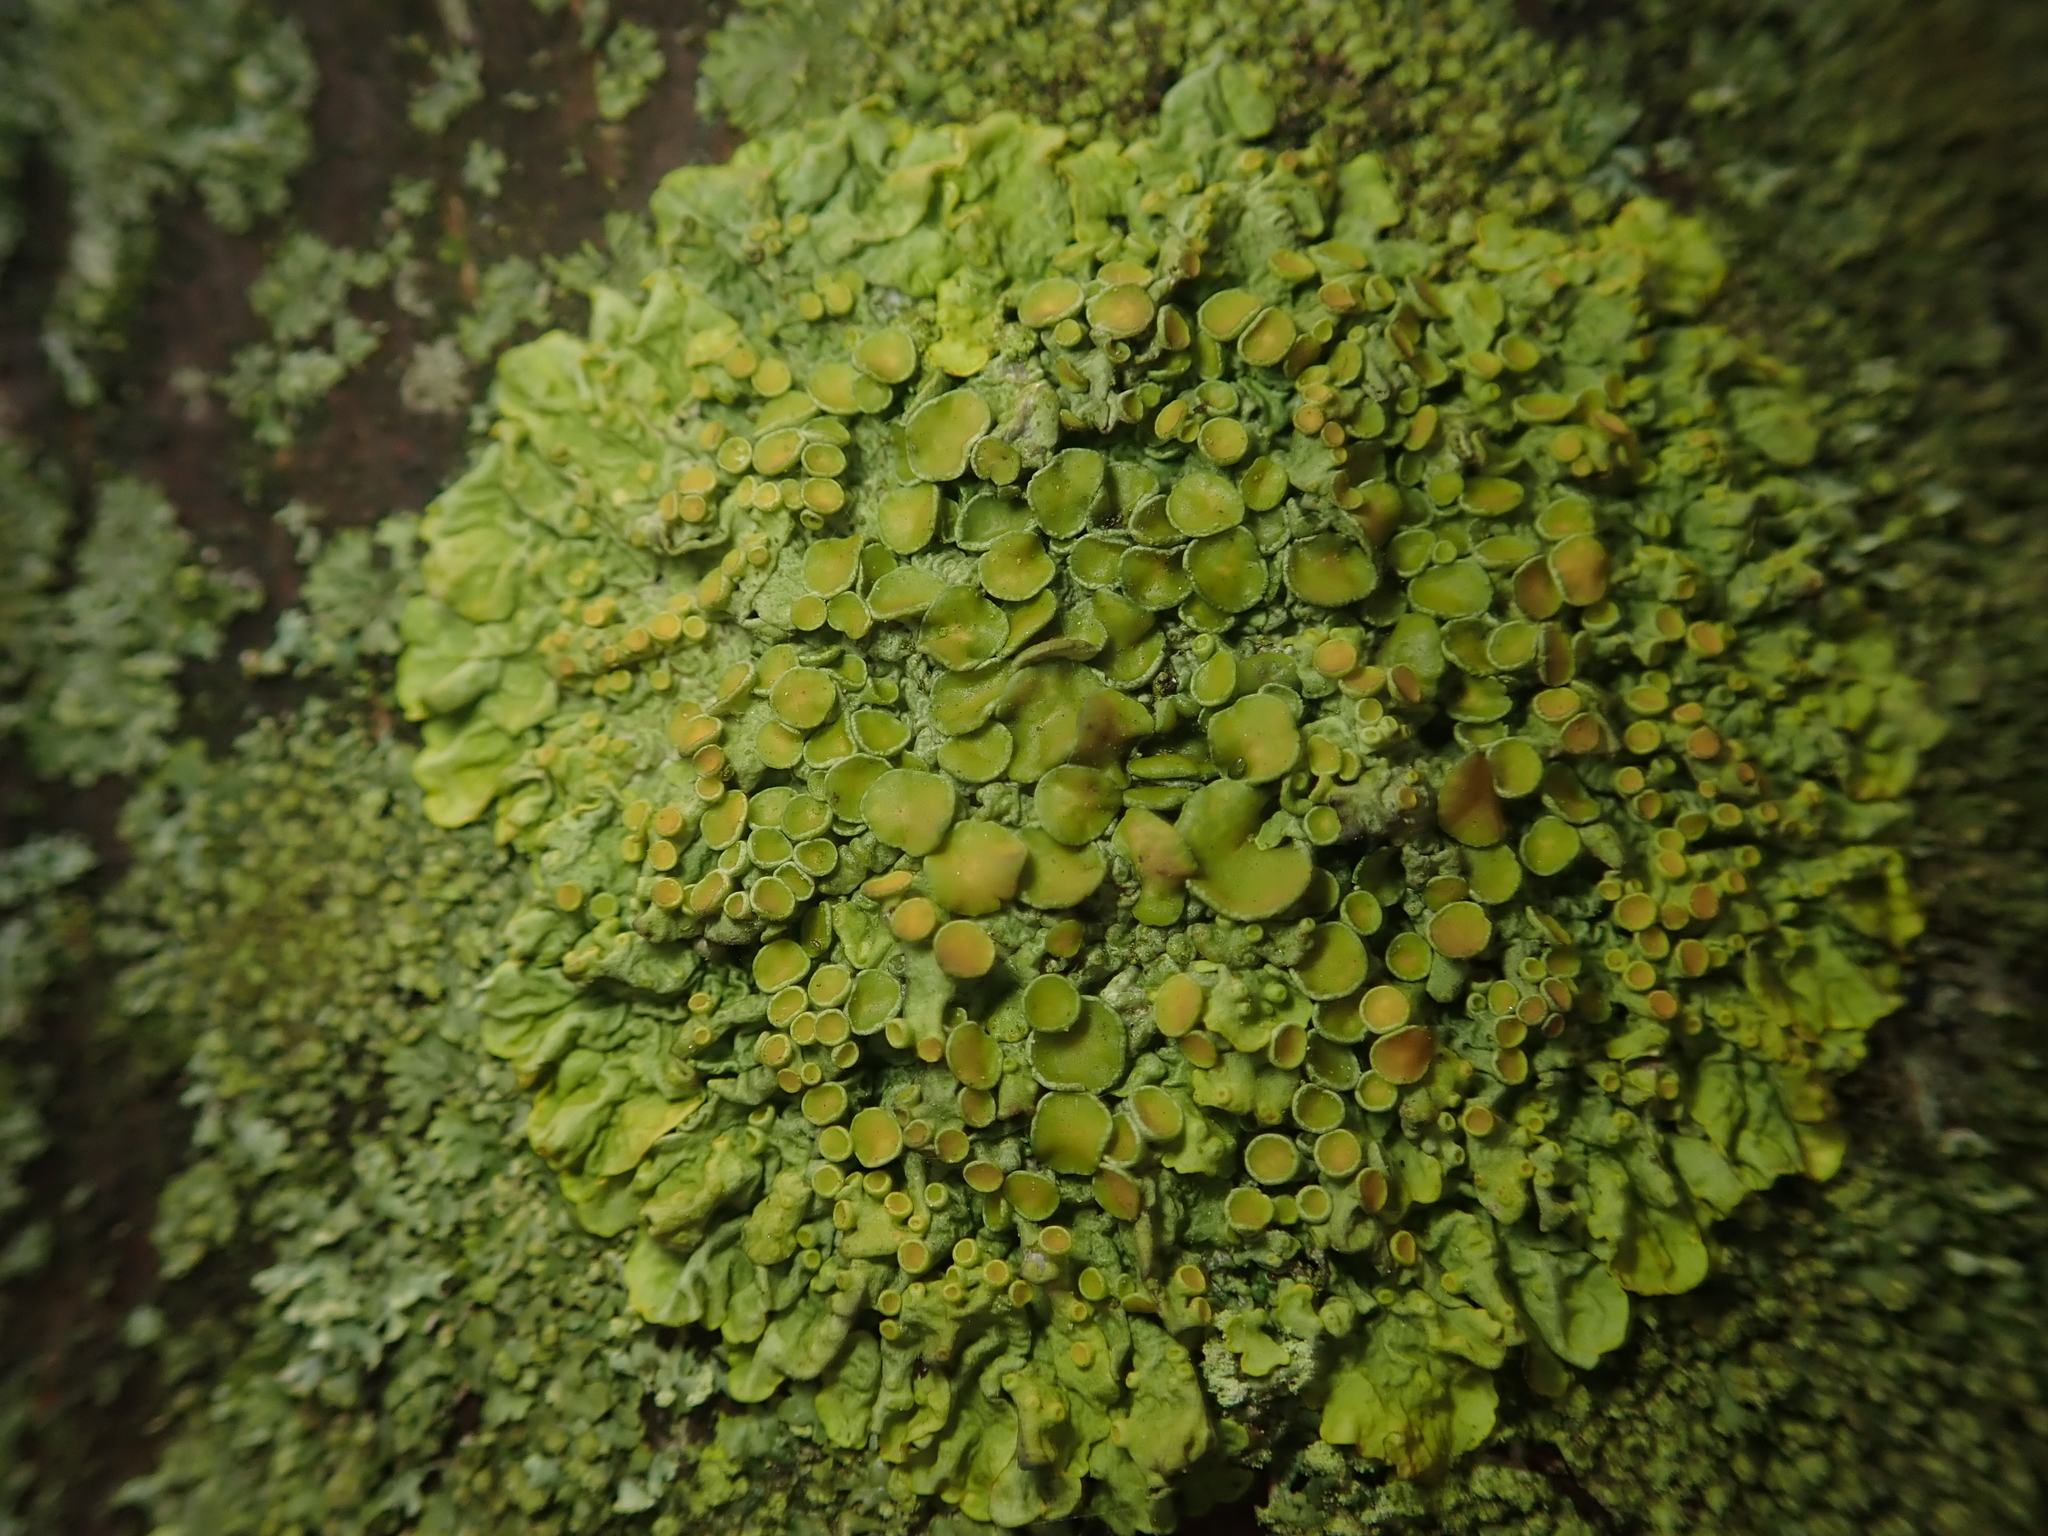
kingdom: Fungi
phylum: Ascomycota
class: Lecanoromycetes
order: Teloschistales
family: Teloschistaceae
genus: Xanthoria
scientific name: Xanthoria parietina
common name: Common orange lichen
